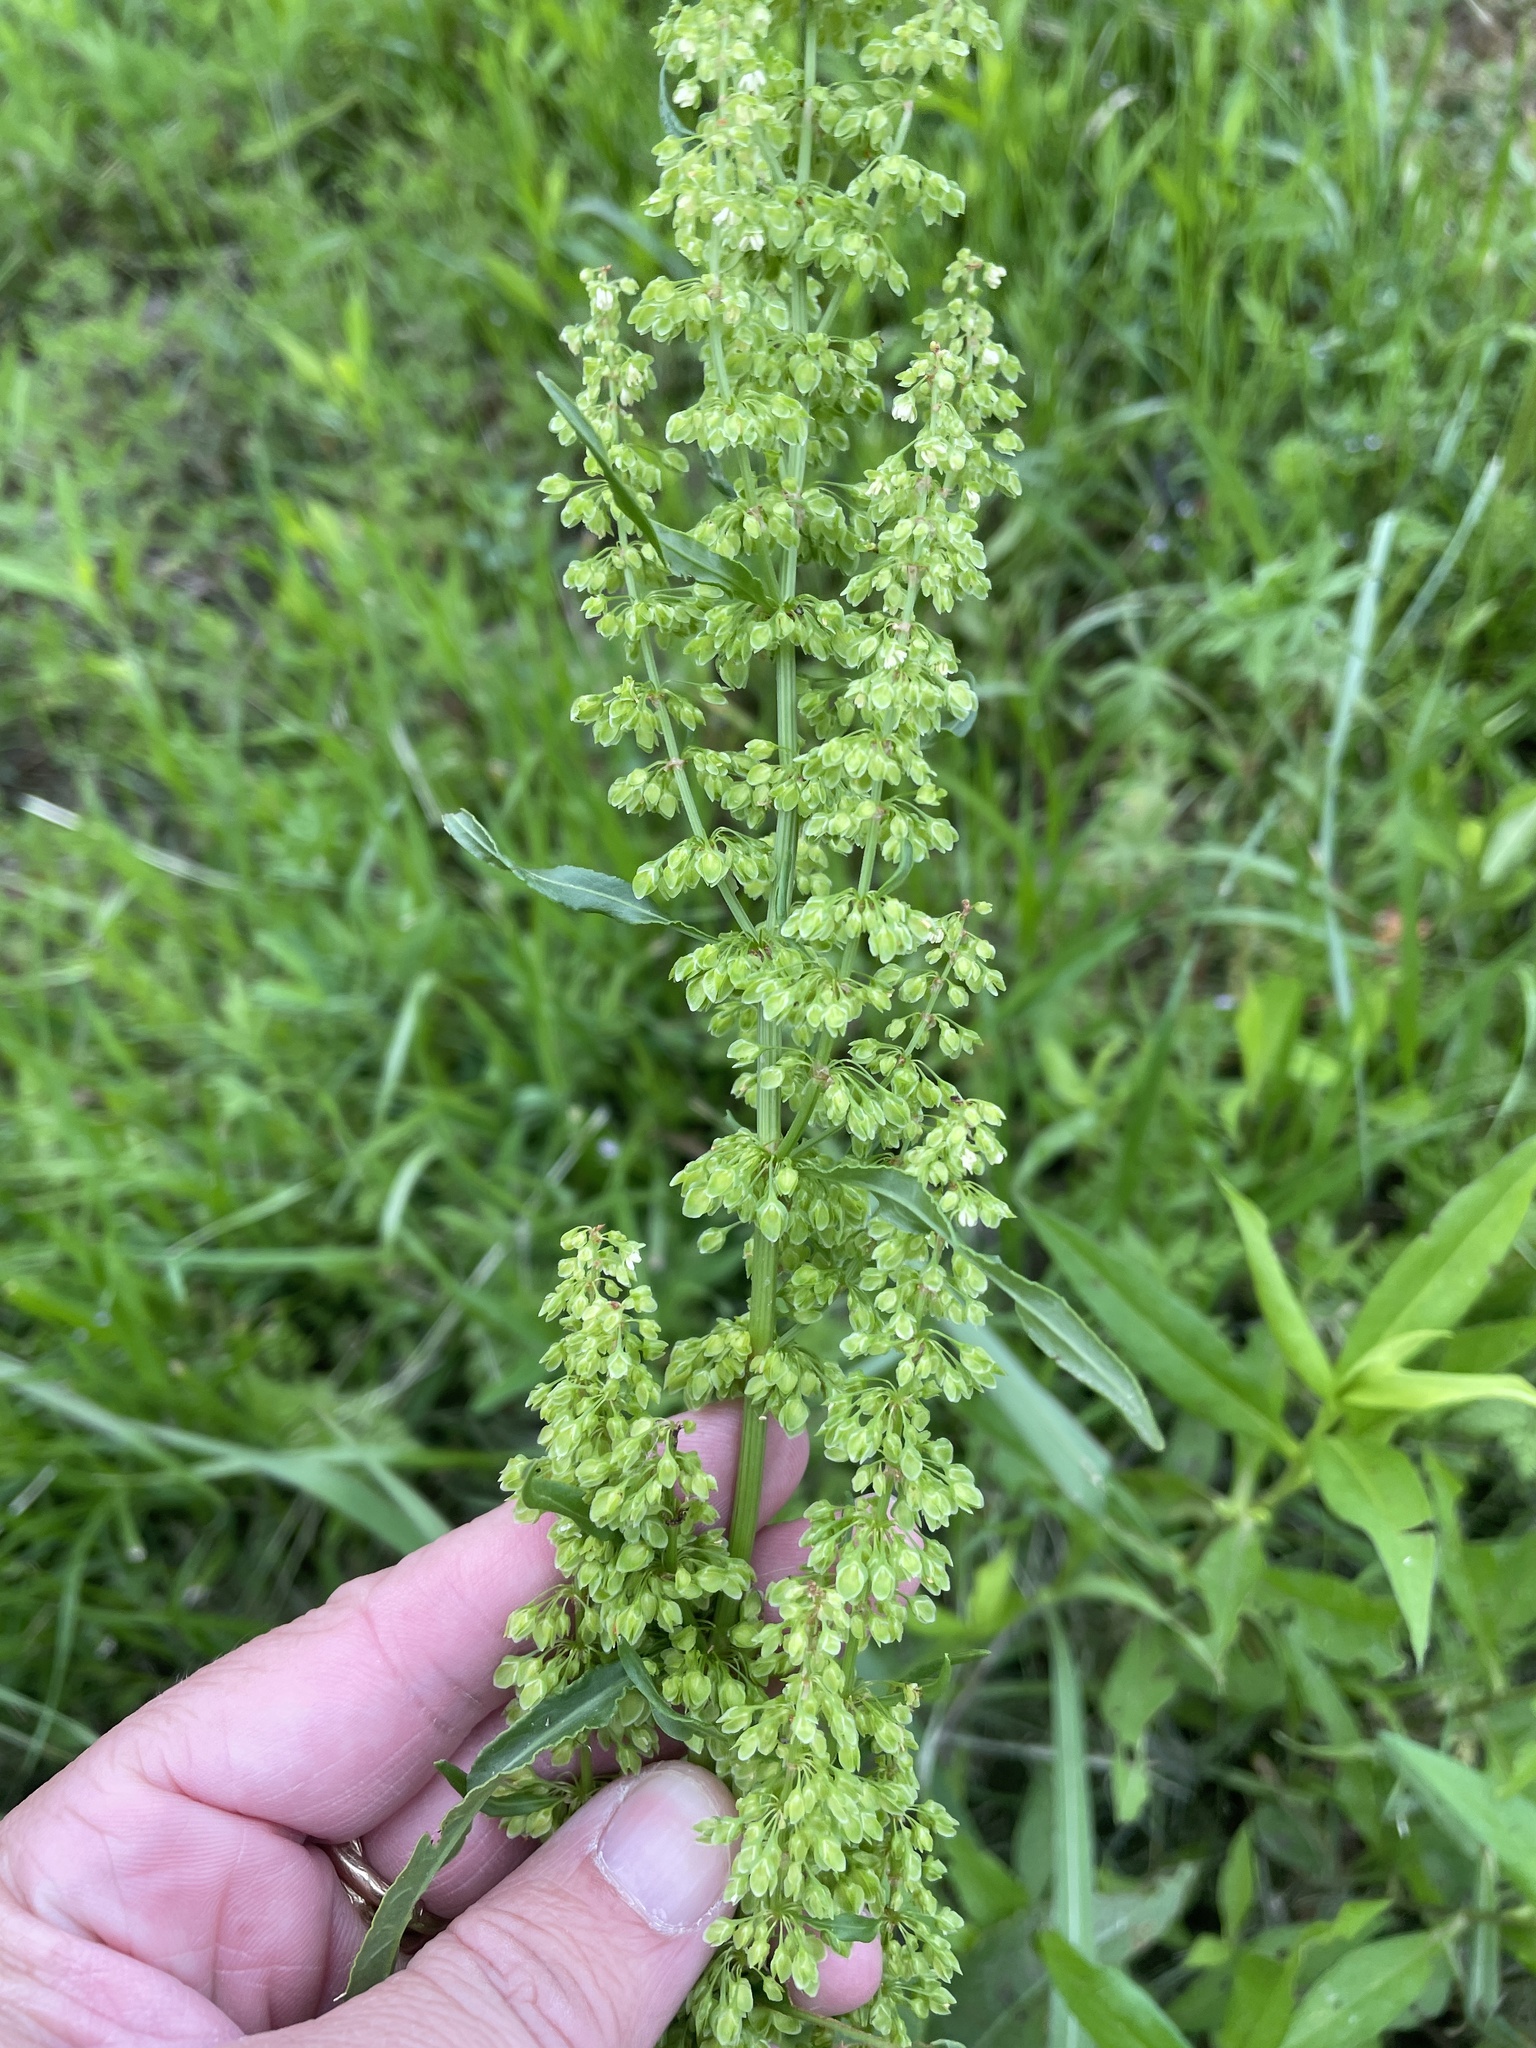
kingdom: Plantae
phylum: Tracheophyta
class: Magnoliopsida
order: Caryophyllales
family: Polygonaceae
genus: Rumex
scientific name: Rumex crispus
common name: Curled dock
